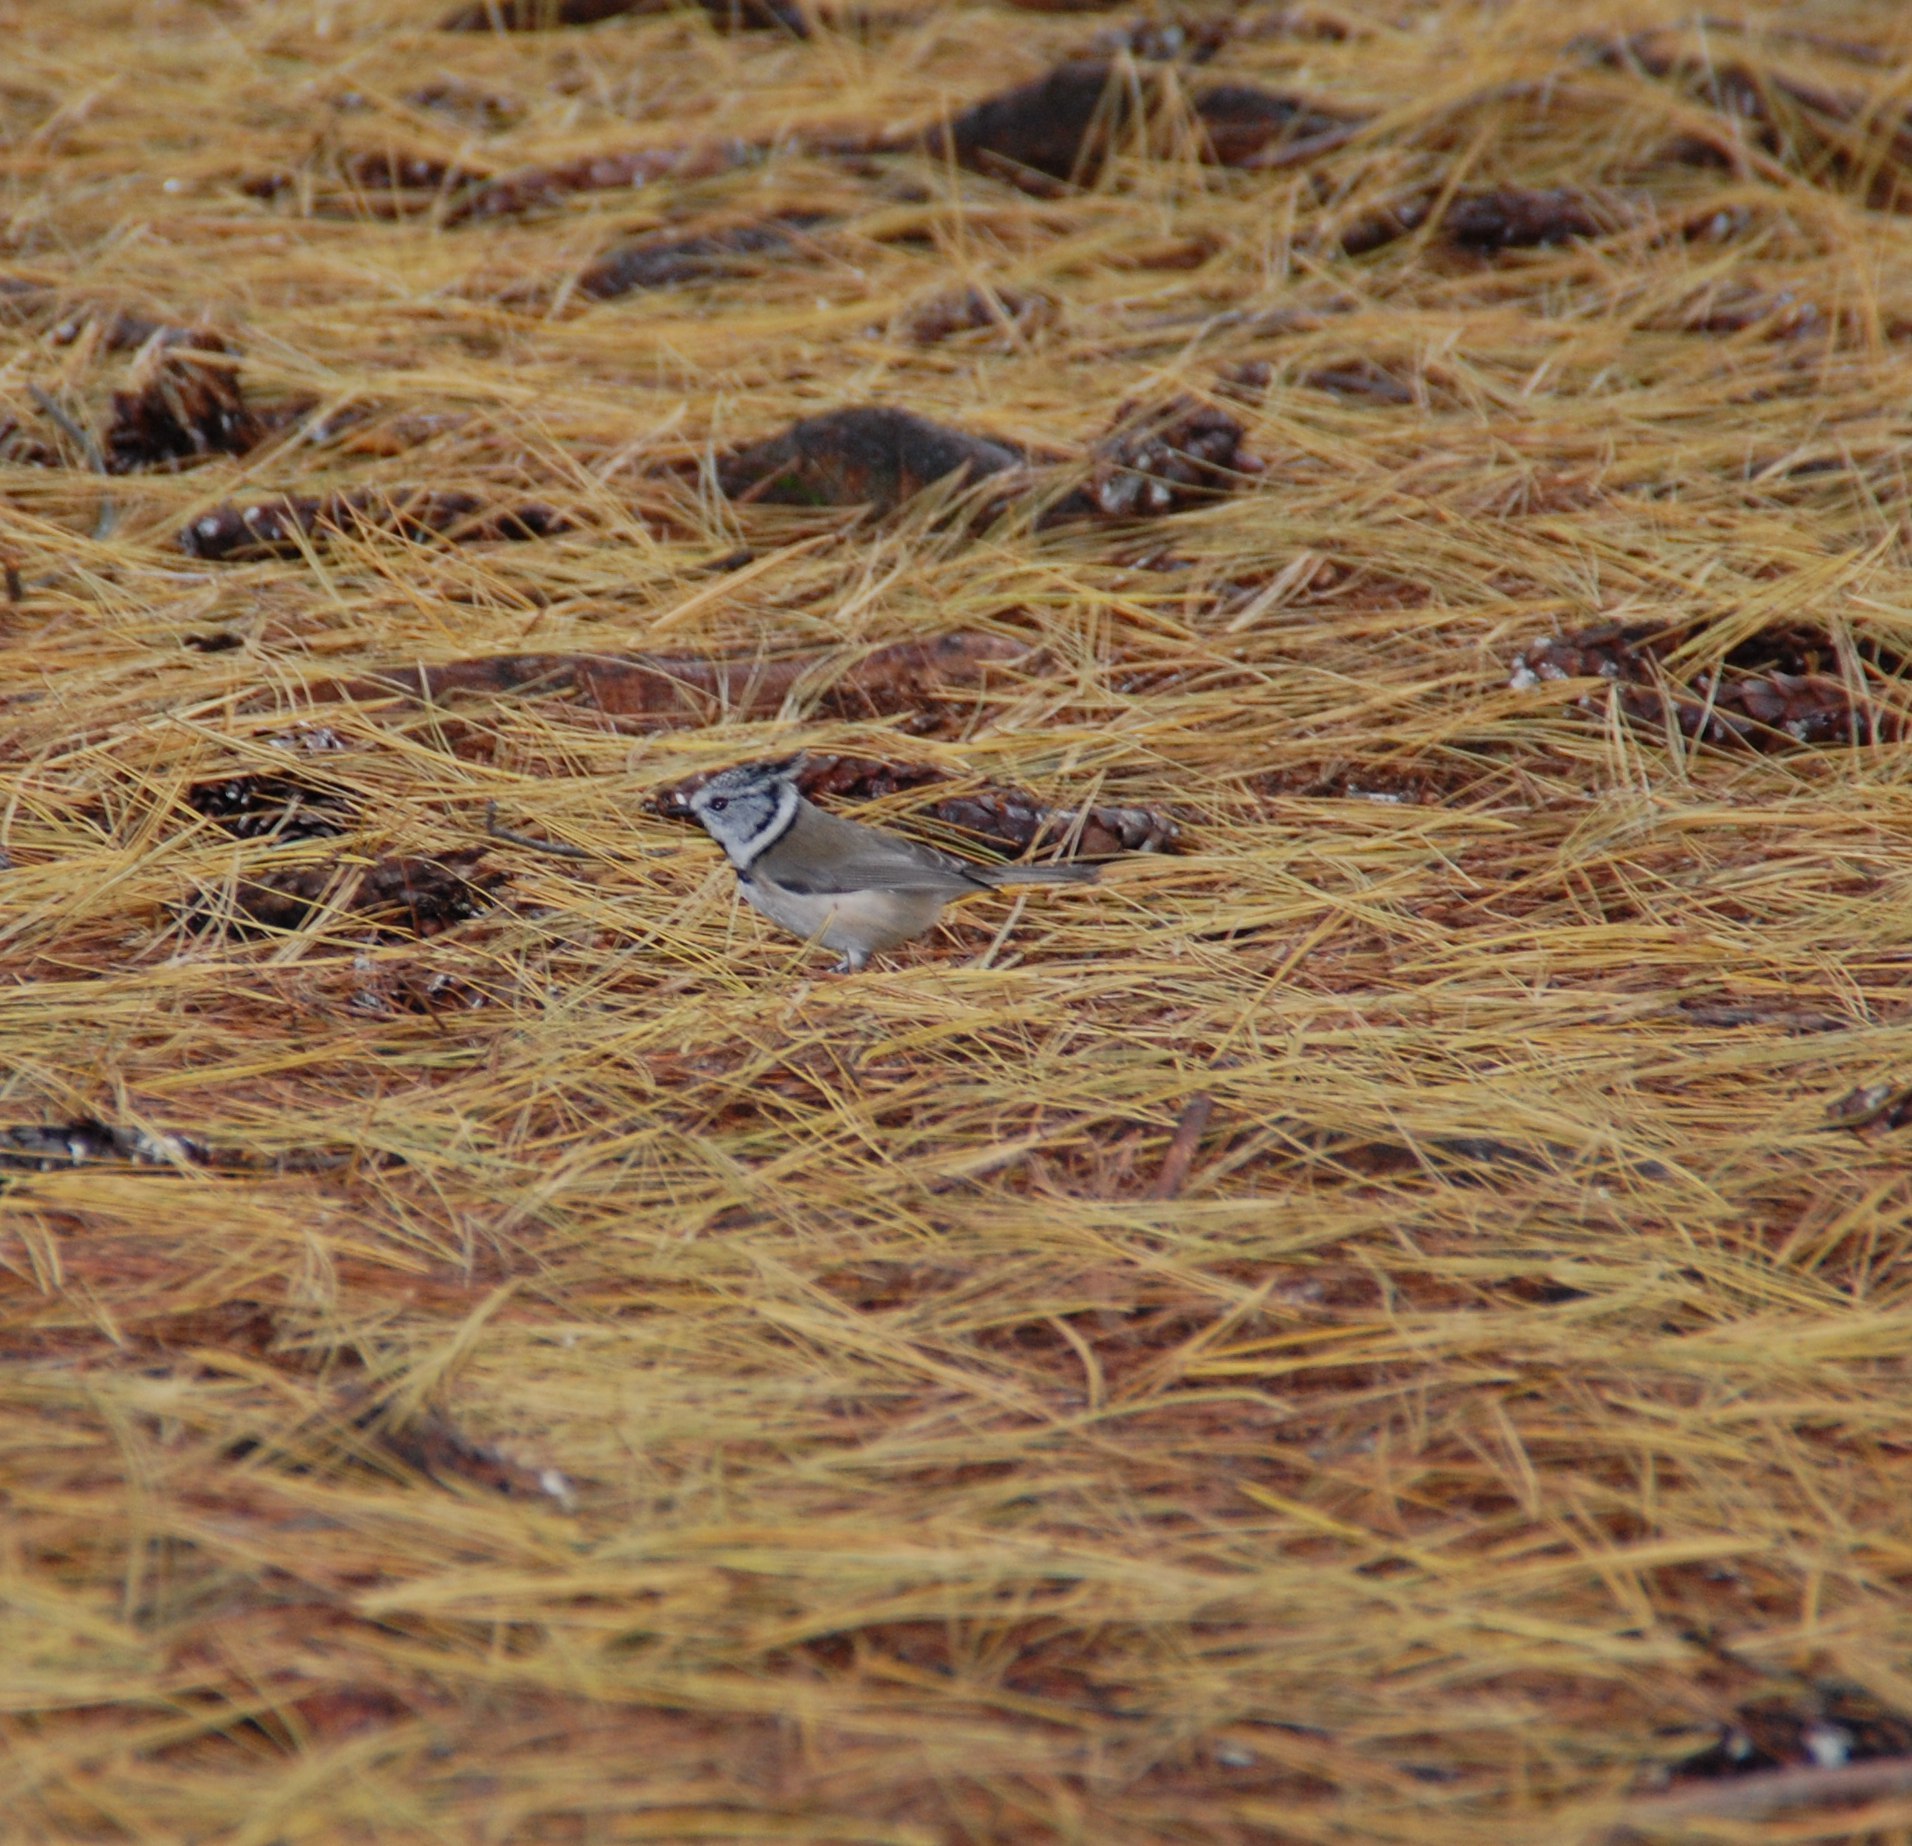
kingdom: Animalia
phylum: Chordata
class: Aves
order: Passeriformes
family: Paridae
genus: Lophophanes
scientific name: Lophophanes cristatus
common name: European crested tit
